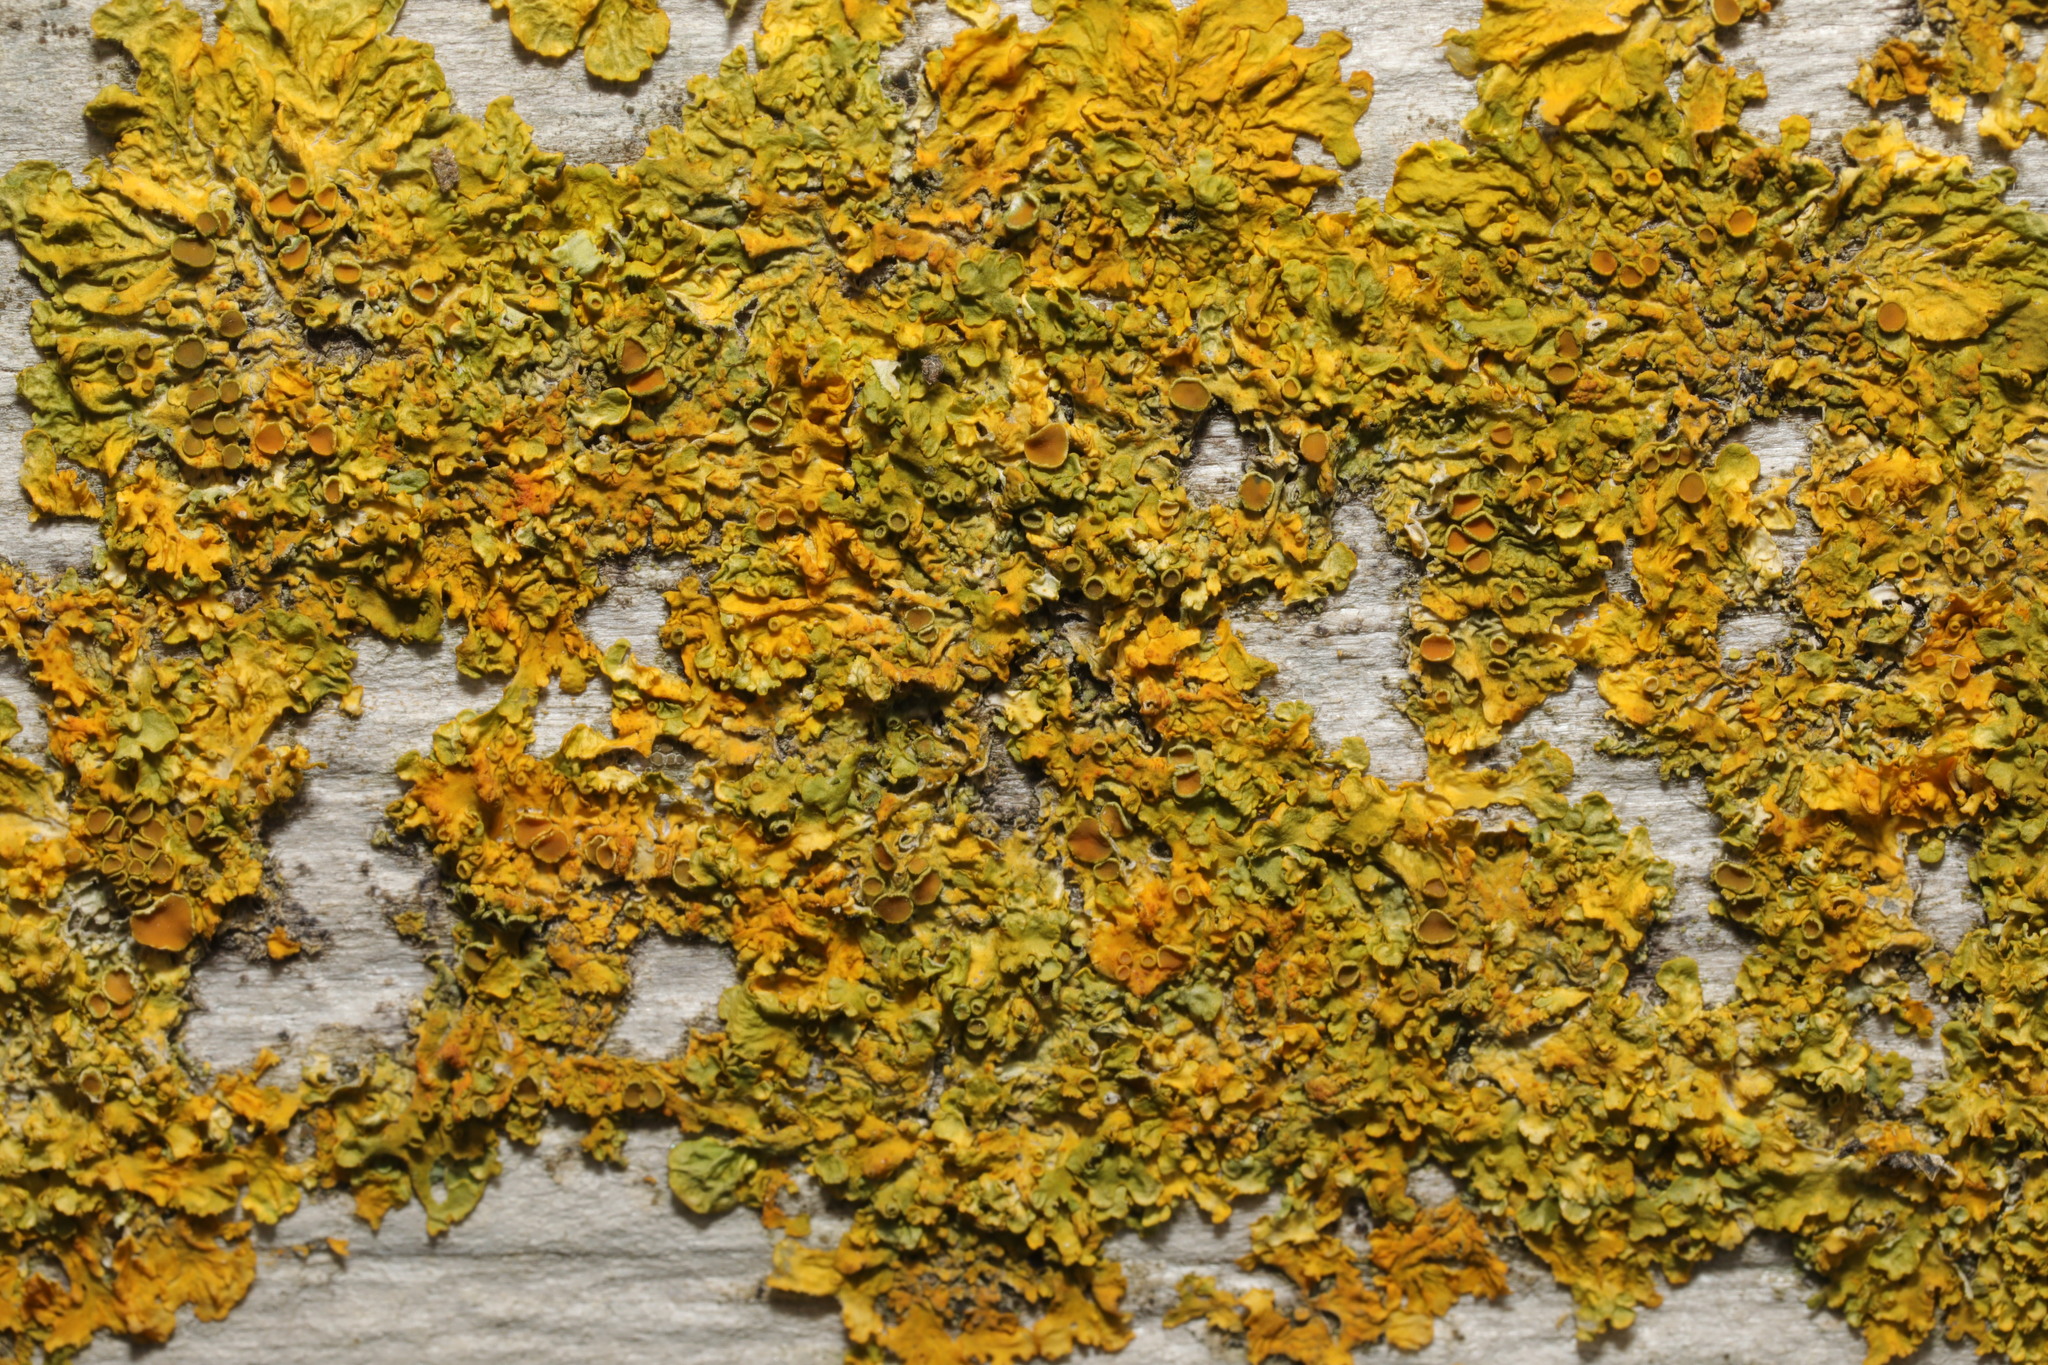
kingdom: Fungi
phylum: Ascomycota
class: Lecanoromycetes
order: Teloschistales
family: Teloschistaceae
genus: Xanthoria
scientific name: Xanthoria parietina
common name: Common orange lichen
